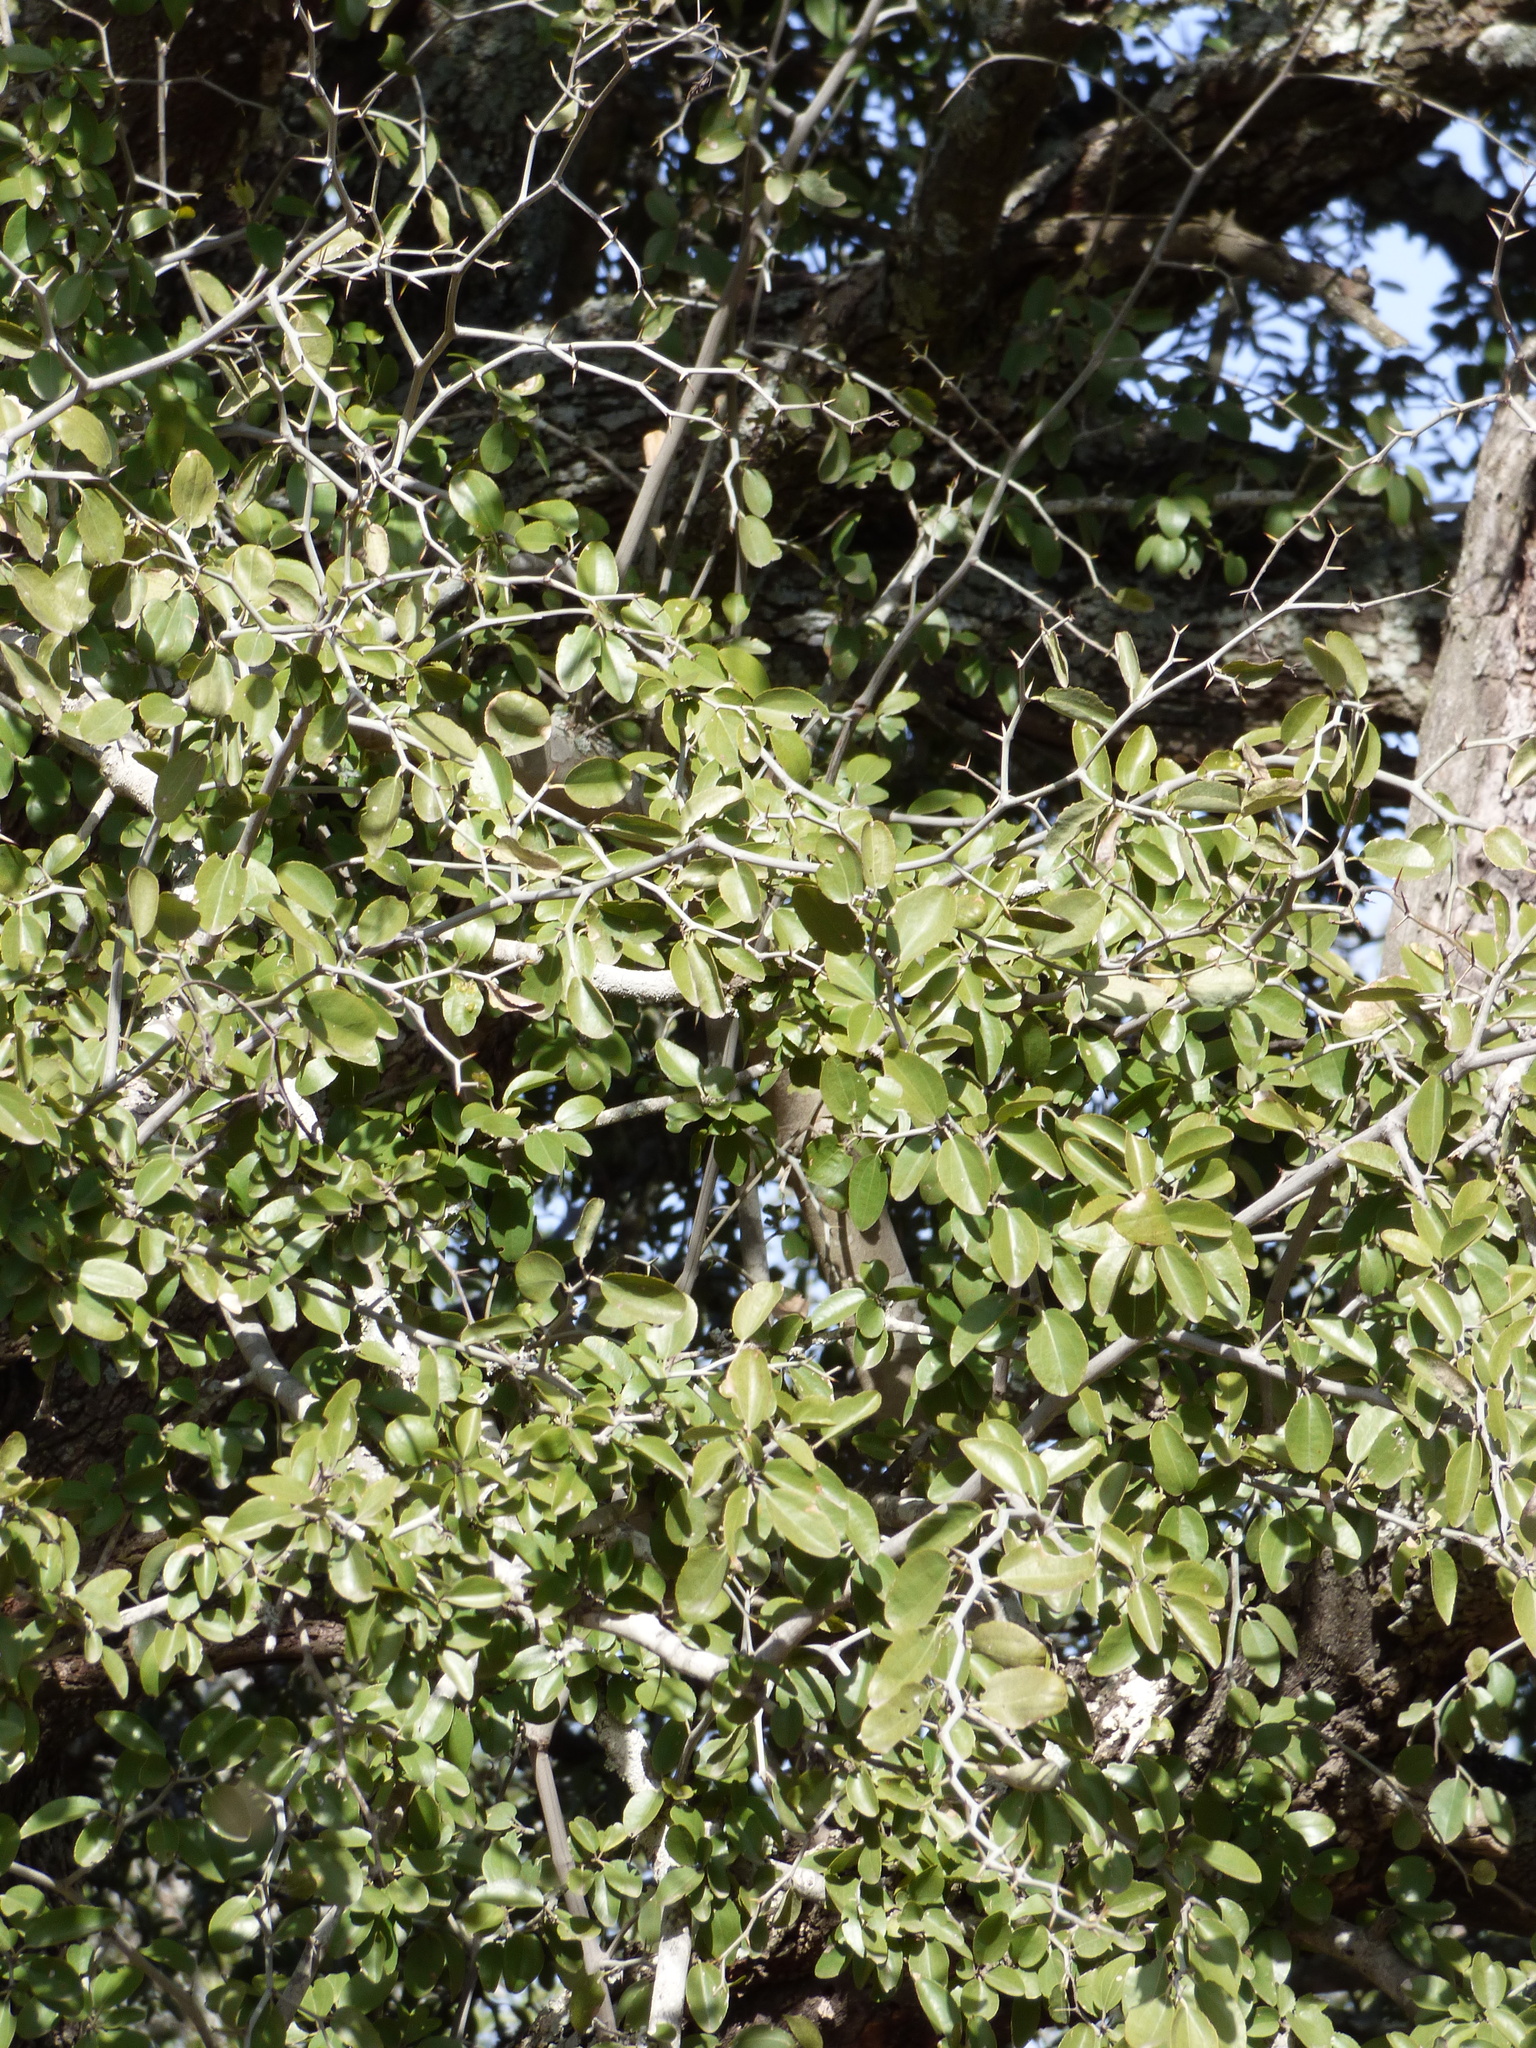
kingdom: Plantae
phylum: Tracheophyta
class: Magnoliopsida
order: Rosales
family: Rhamnaceae
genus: Sarcomphalus
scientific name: Sarcomphalus mistol
